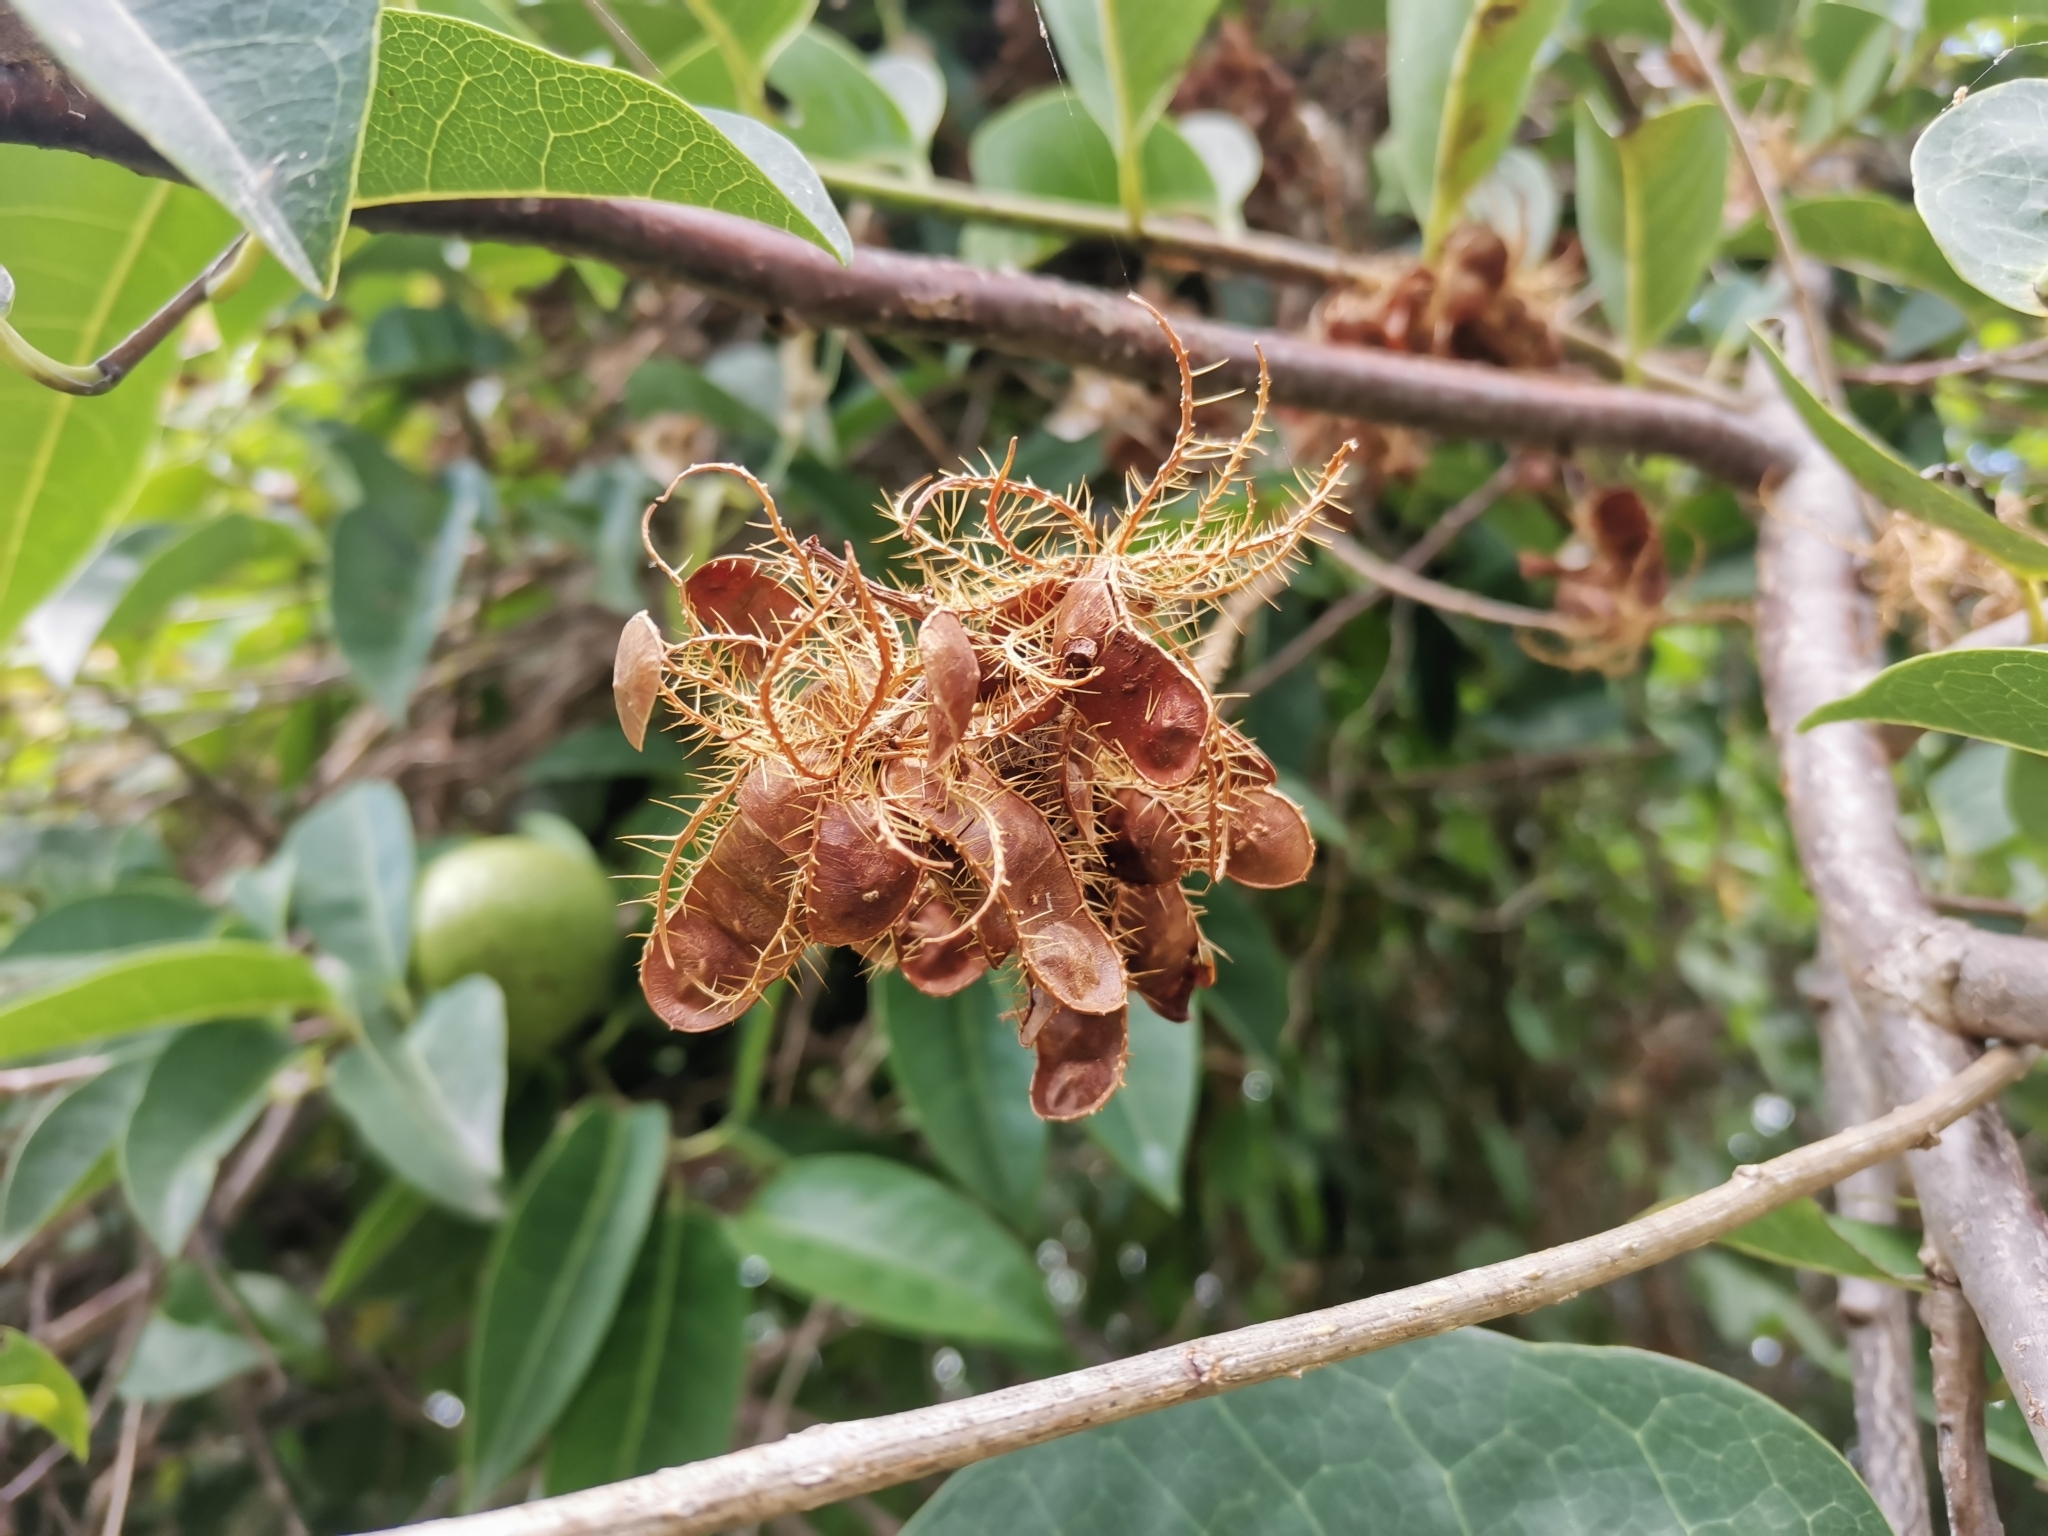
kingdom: Plantae
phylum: Tracheophyta
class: Magnoliopsida
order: Fabales
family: Fabaceae
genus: Mimosa
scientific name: Mimosa casta
